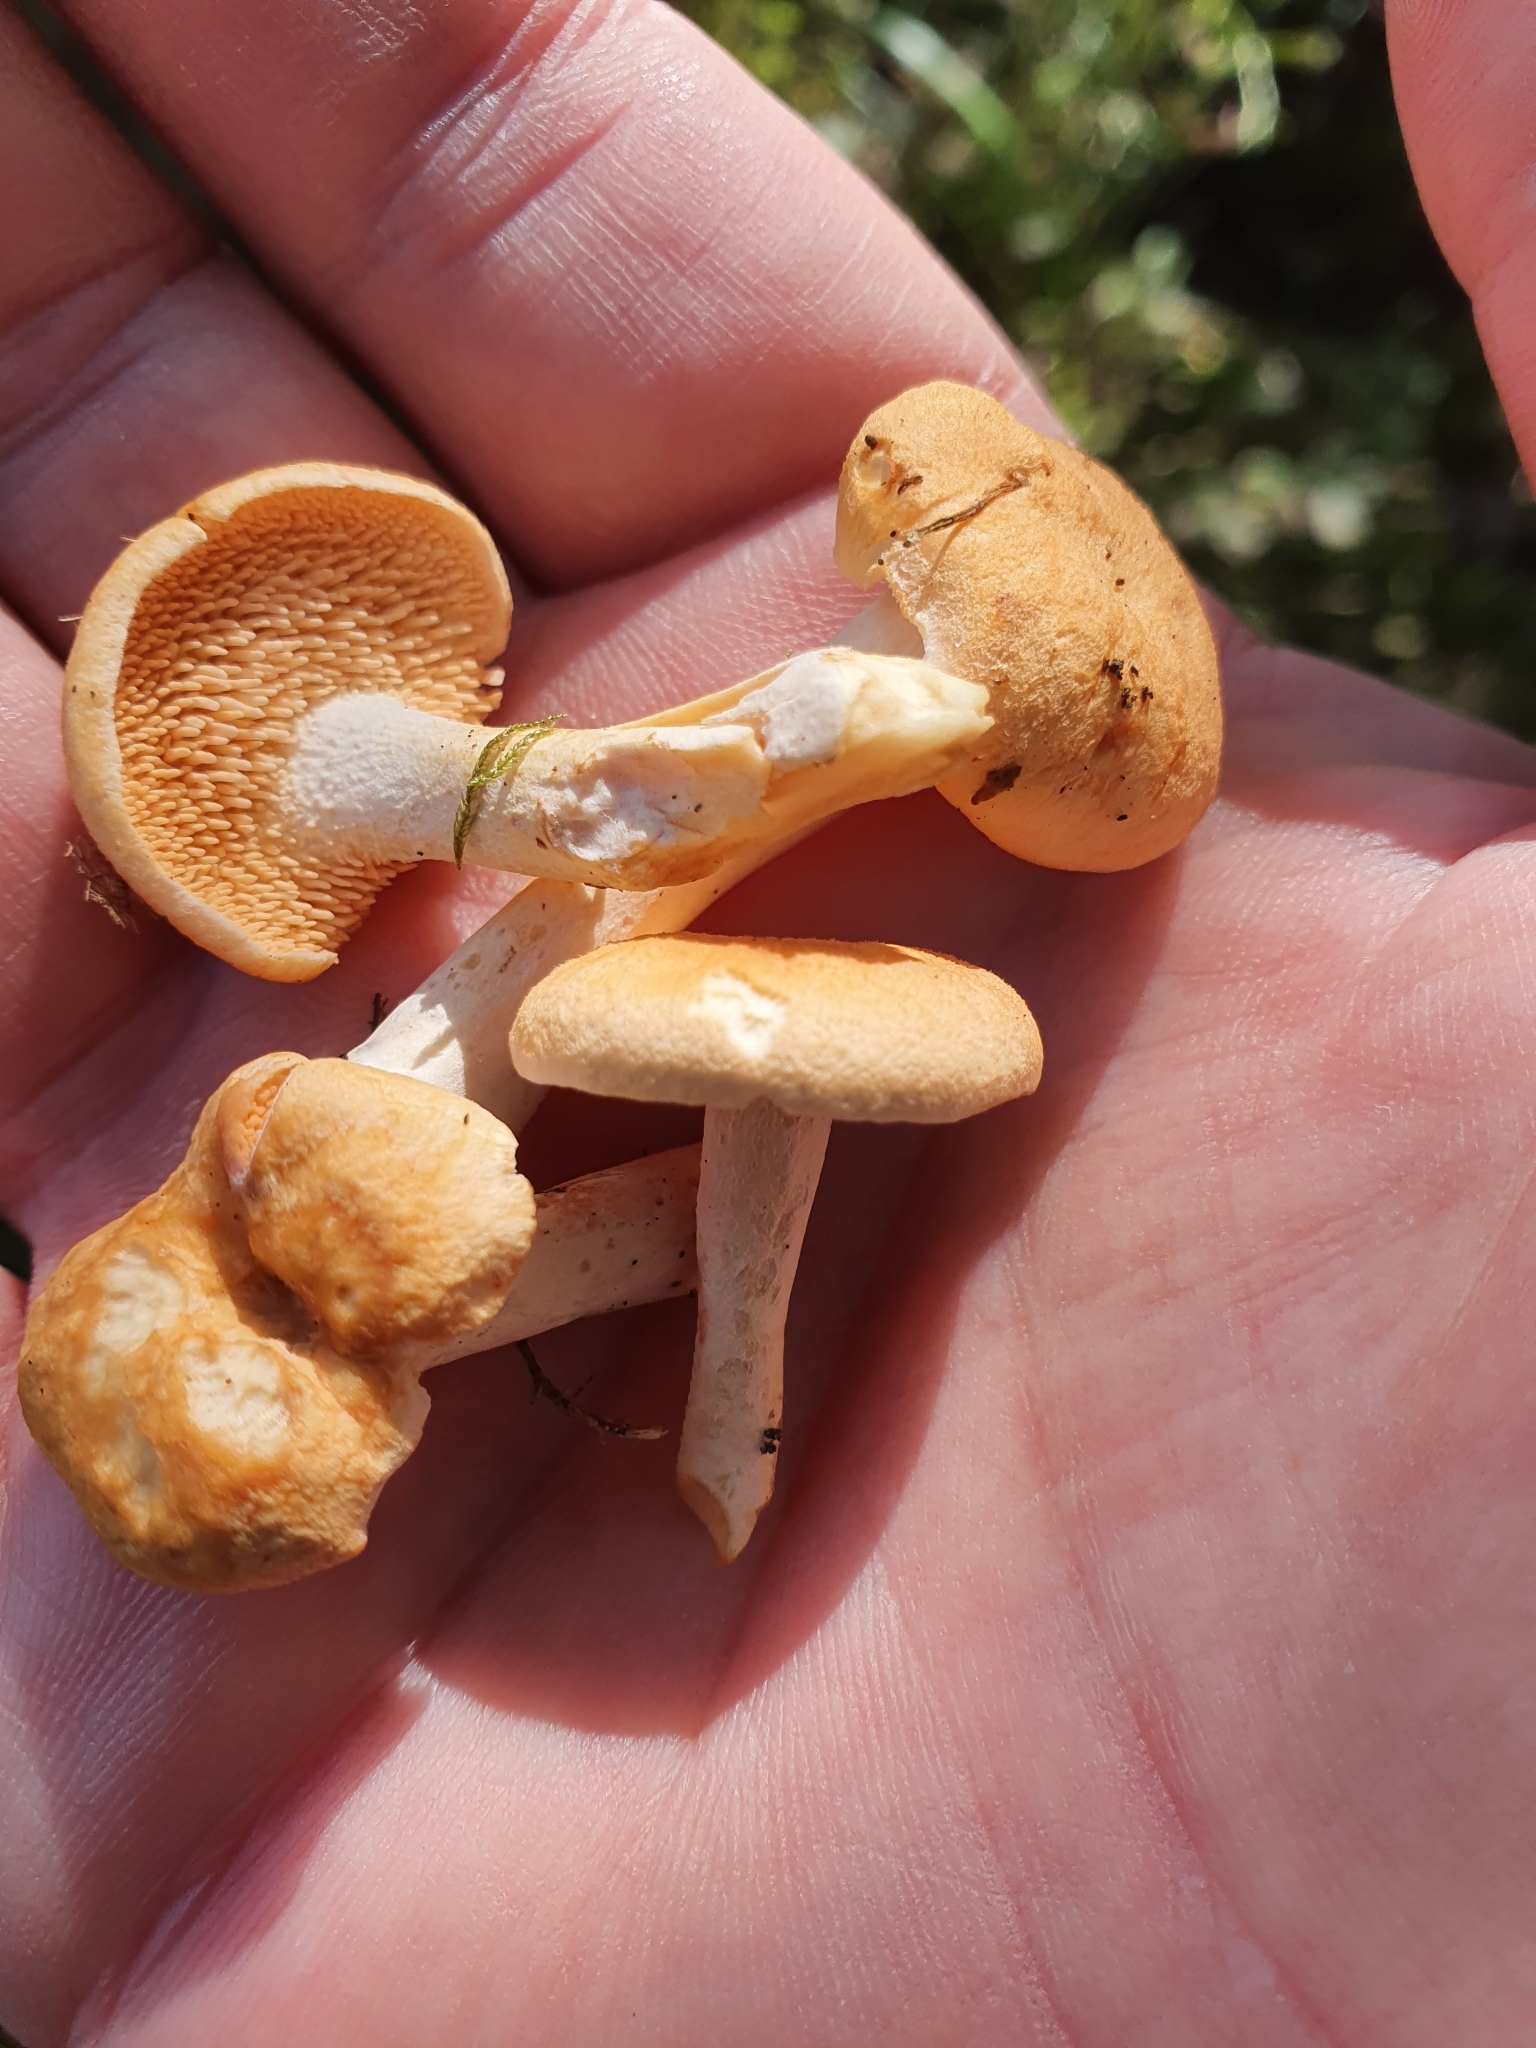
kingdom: Fungi
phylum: Basidiomycota
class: Agaricomycetes
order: Cantharellales
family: Hydnaceae
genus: Hydnum
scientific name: Hydnum rufescens
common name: Terracotta hedgehog
